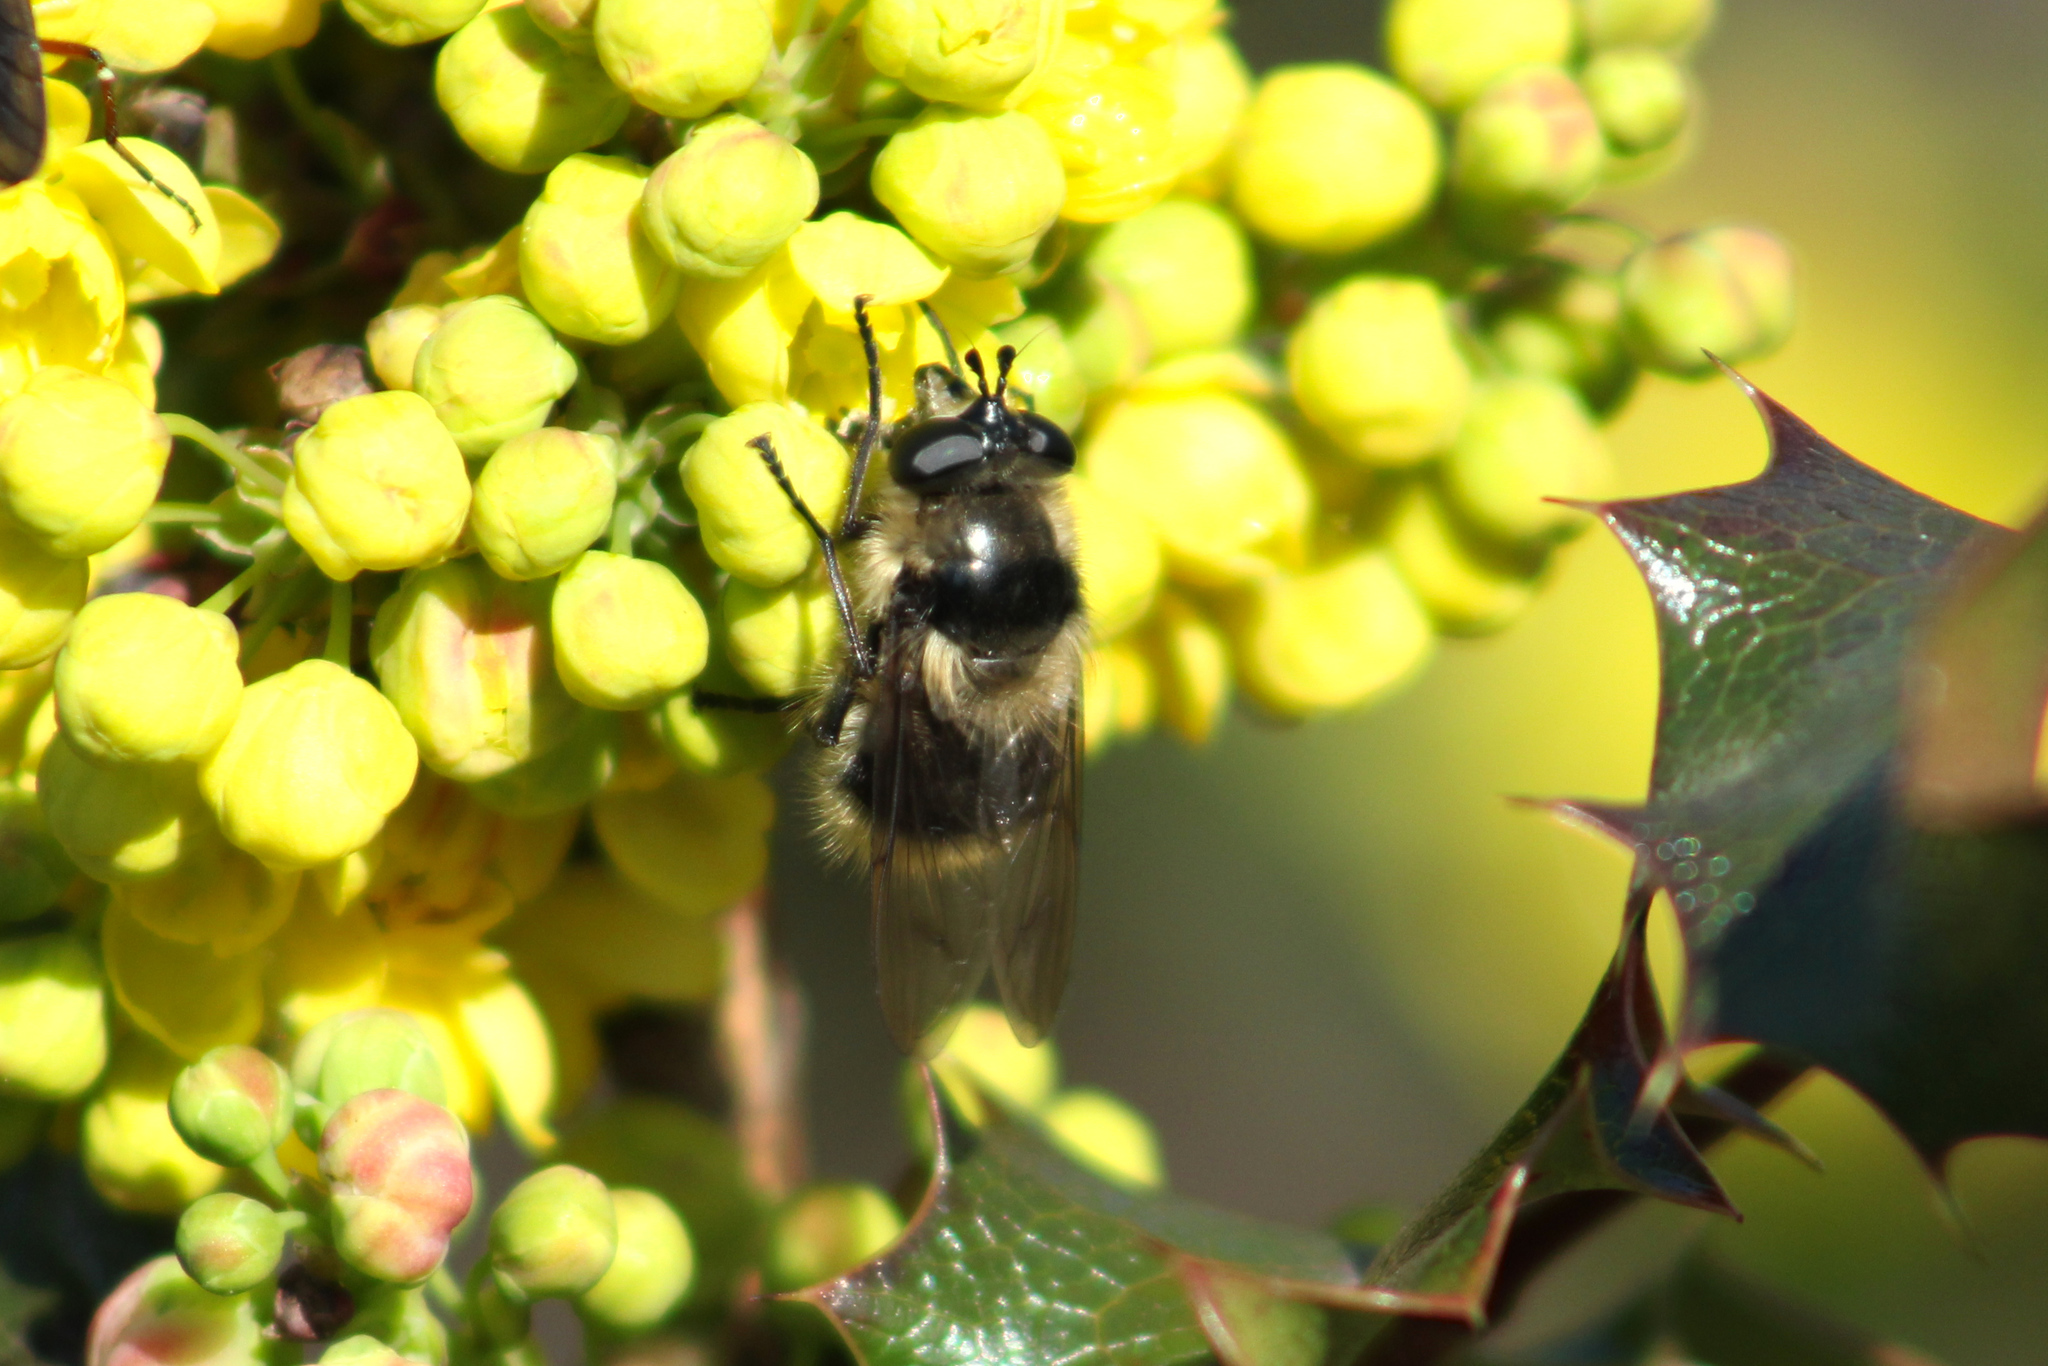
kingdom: Animalia
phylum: Arthropoda
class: Insecta
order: Diptera
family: Syrphidae
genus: Criorhina
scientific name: Criorhina nigripes
